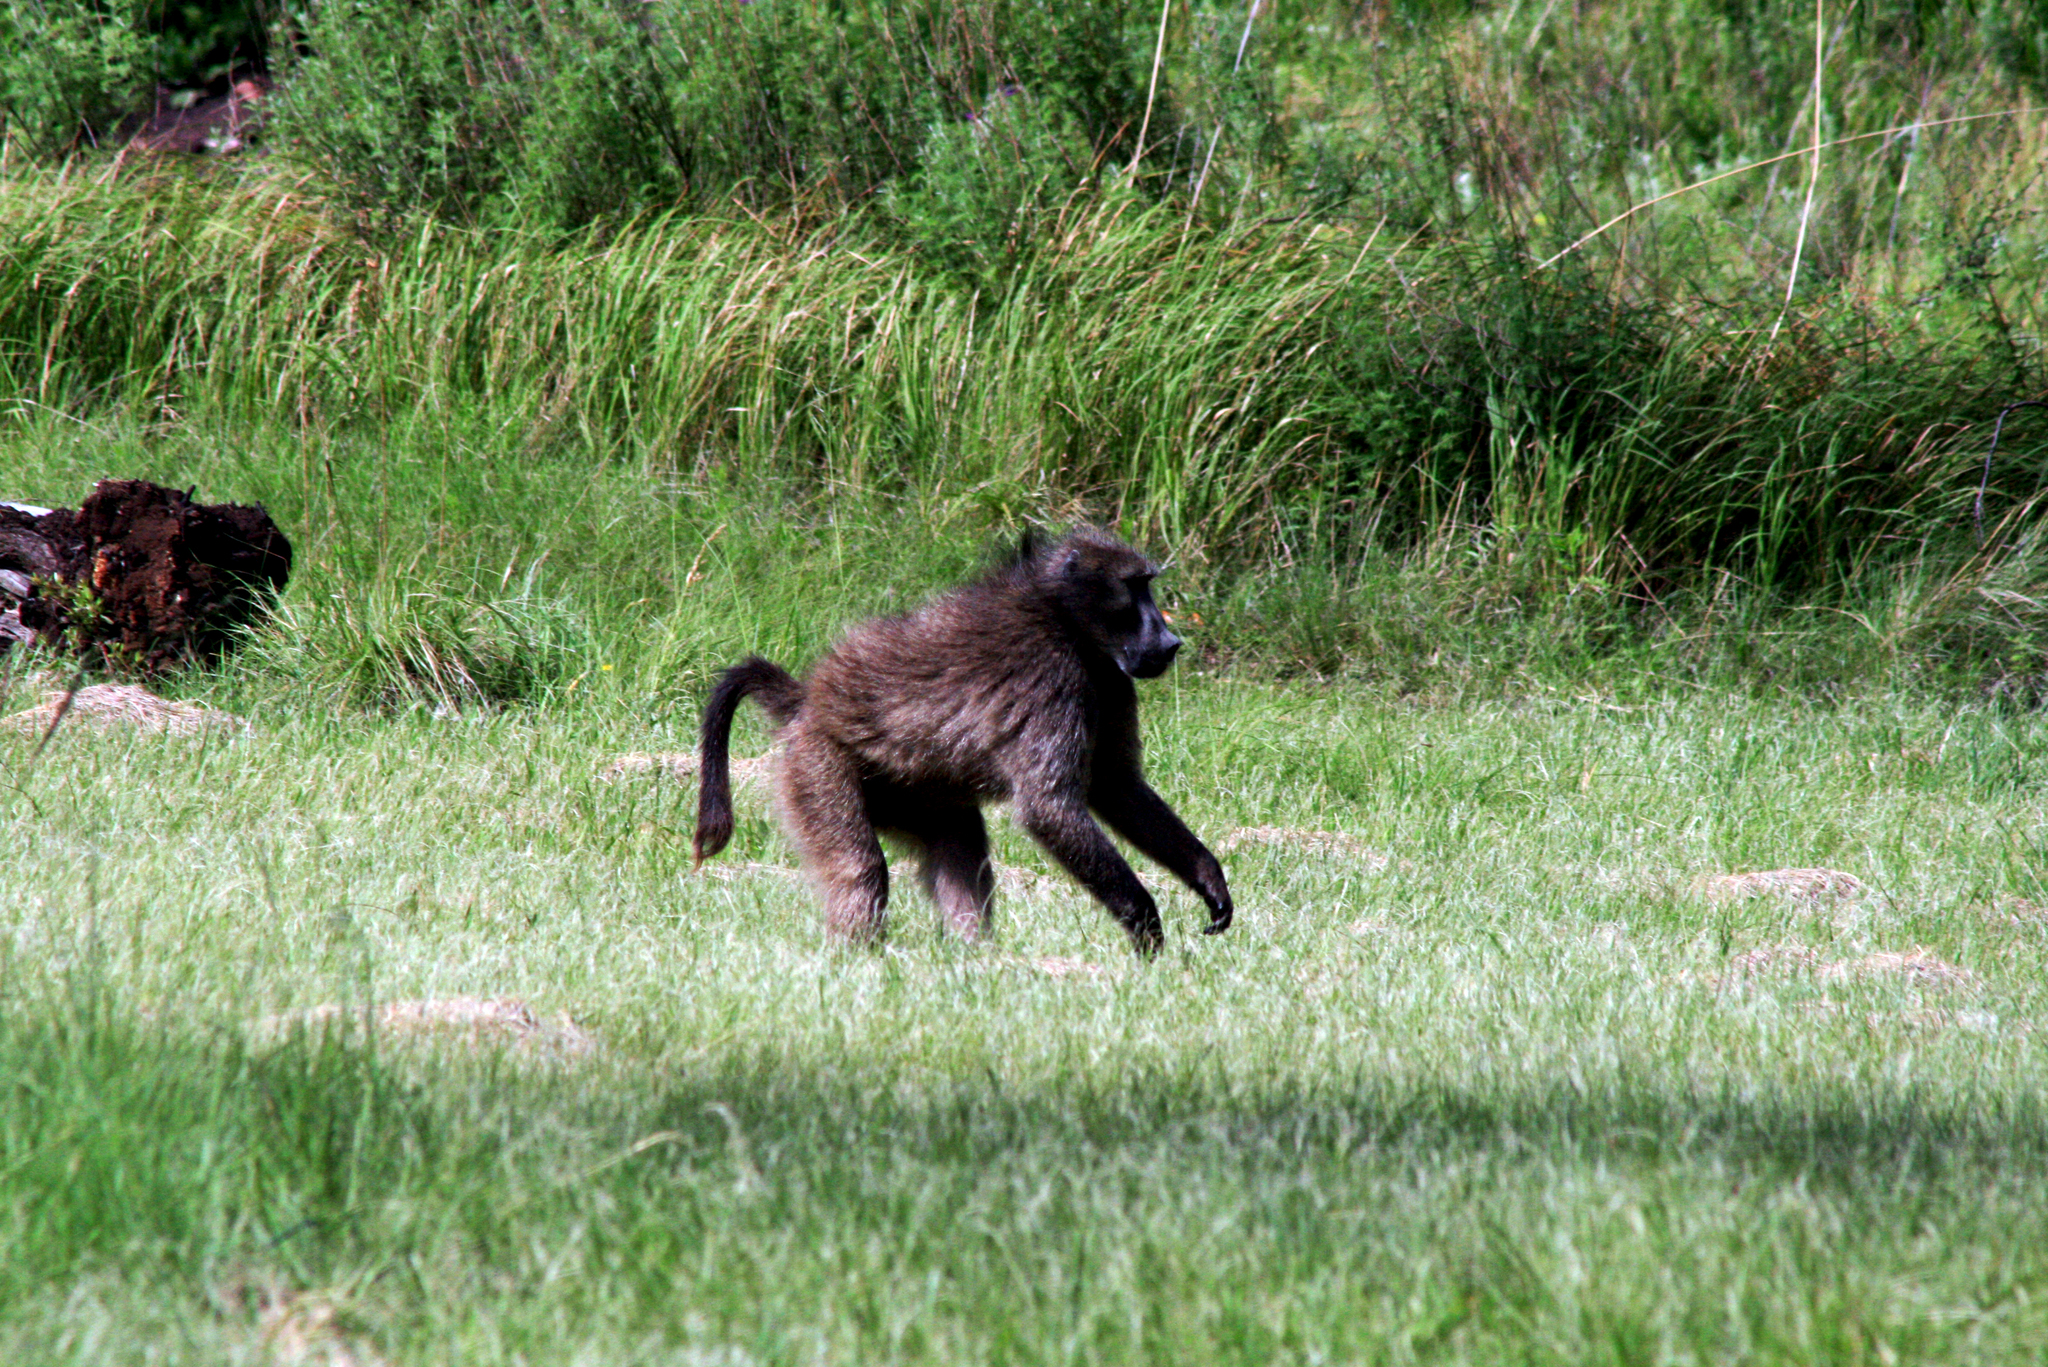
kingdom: Animalia
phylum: Chordata
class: Mammalia
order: Primates
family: Cercopithecidae
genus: Papio
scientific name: Papio ursinus
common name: Chacma baboon
